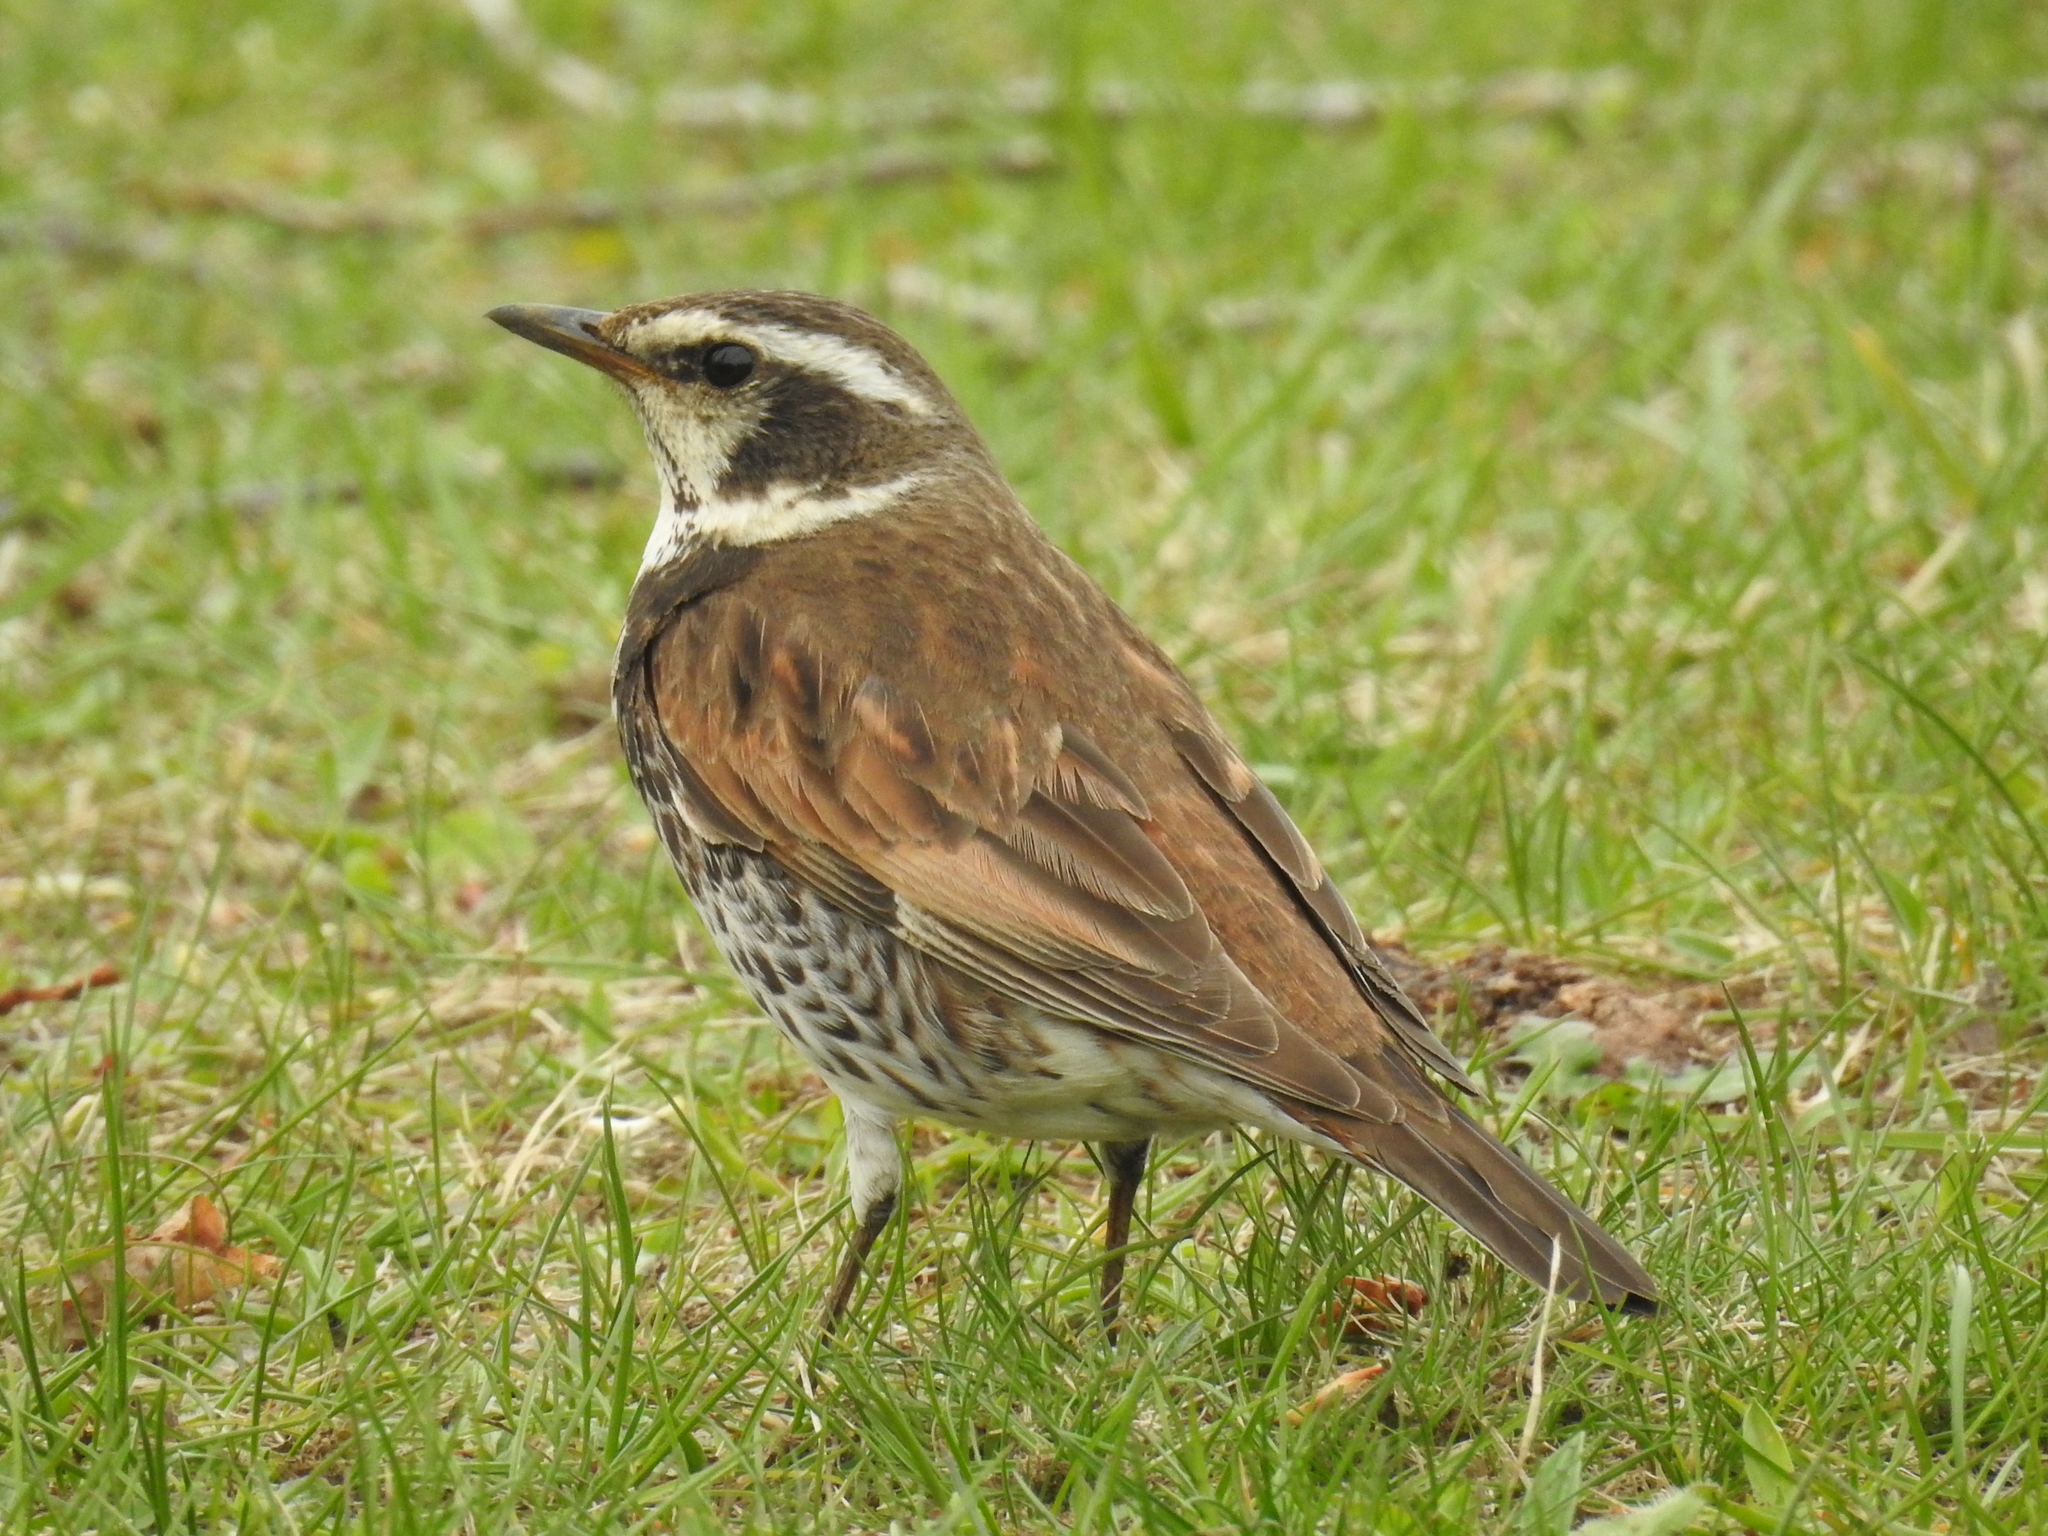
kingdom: Animalia
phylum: Chordata
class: Aves
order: Passeriformes
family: Turdidae
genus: Turdus
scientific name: Turdus eunomus
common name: Dusky thrush
